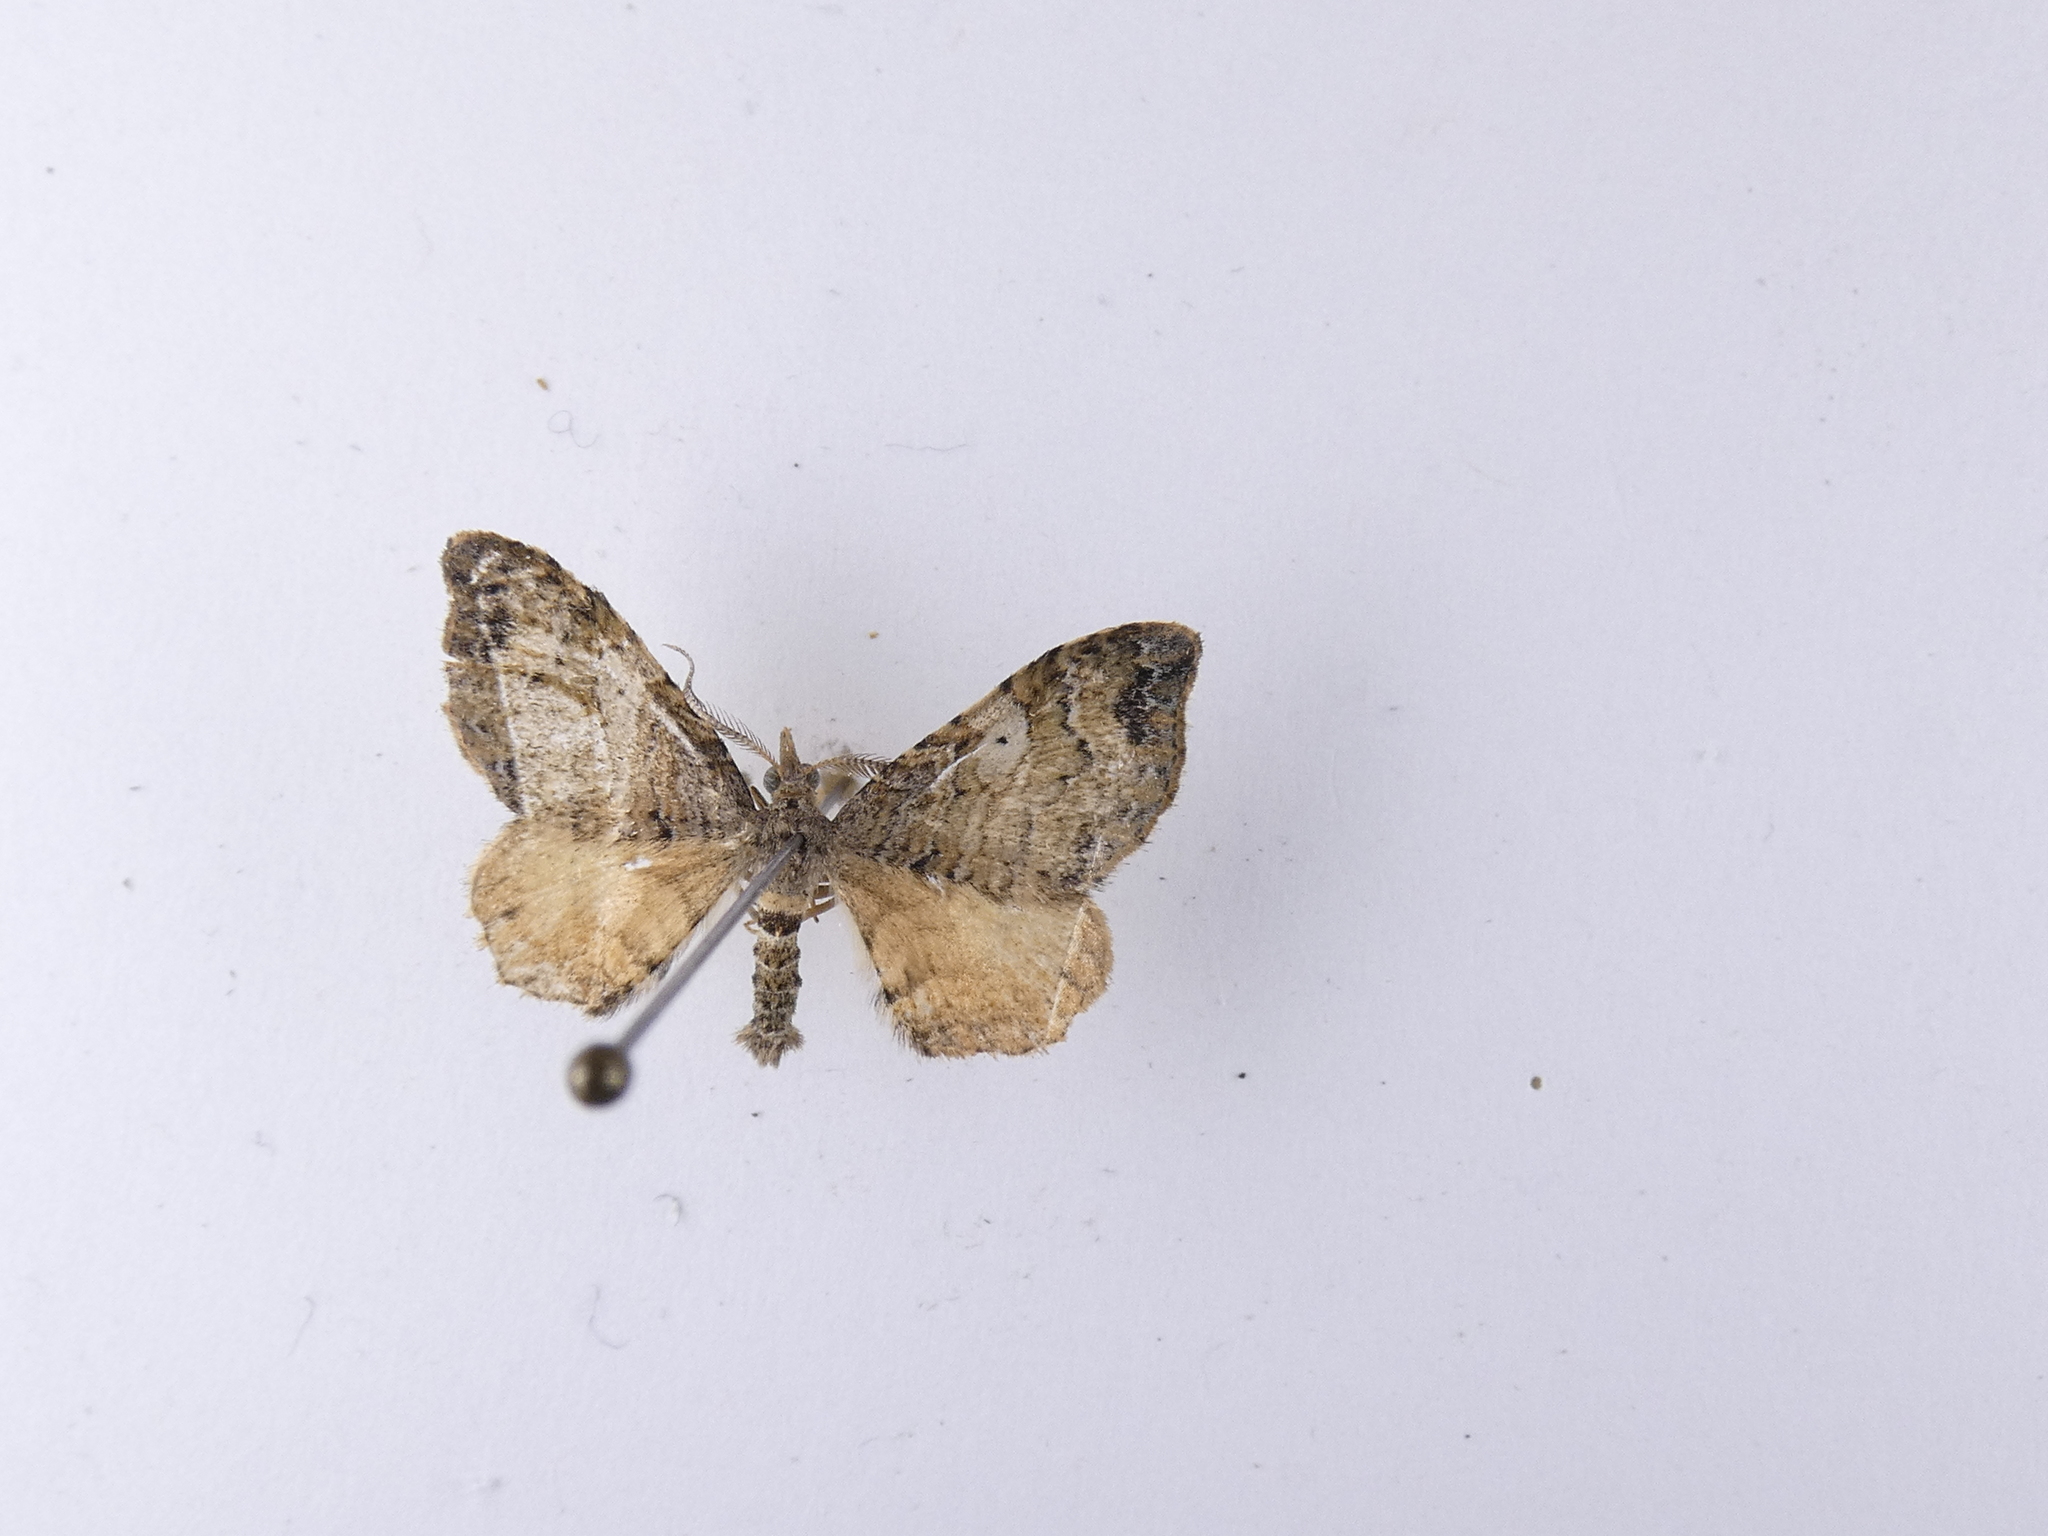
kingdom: Animalia
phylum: Arthropoda
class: Insecta
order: Lepidoptera
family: Geometridae
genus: Homodotis
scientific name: Homodotis megaspilata
